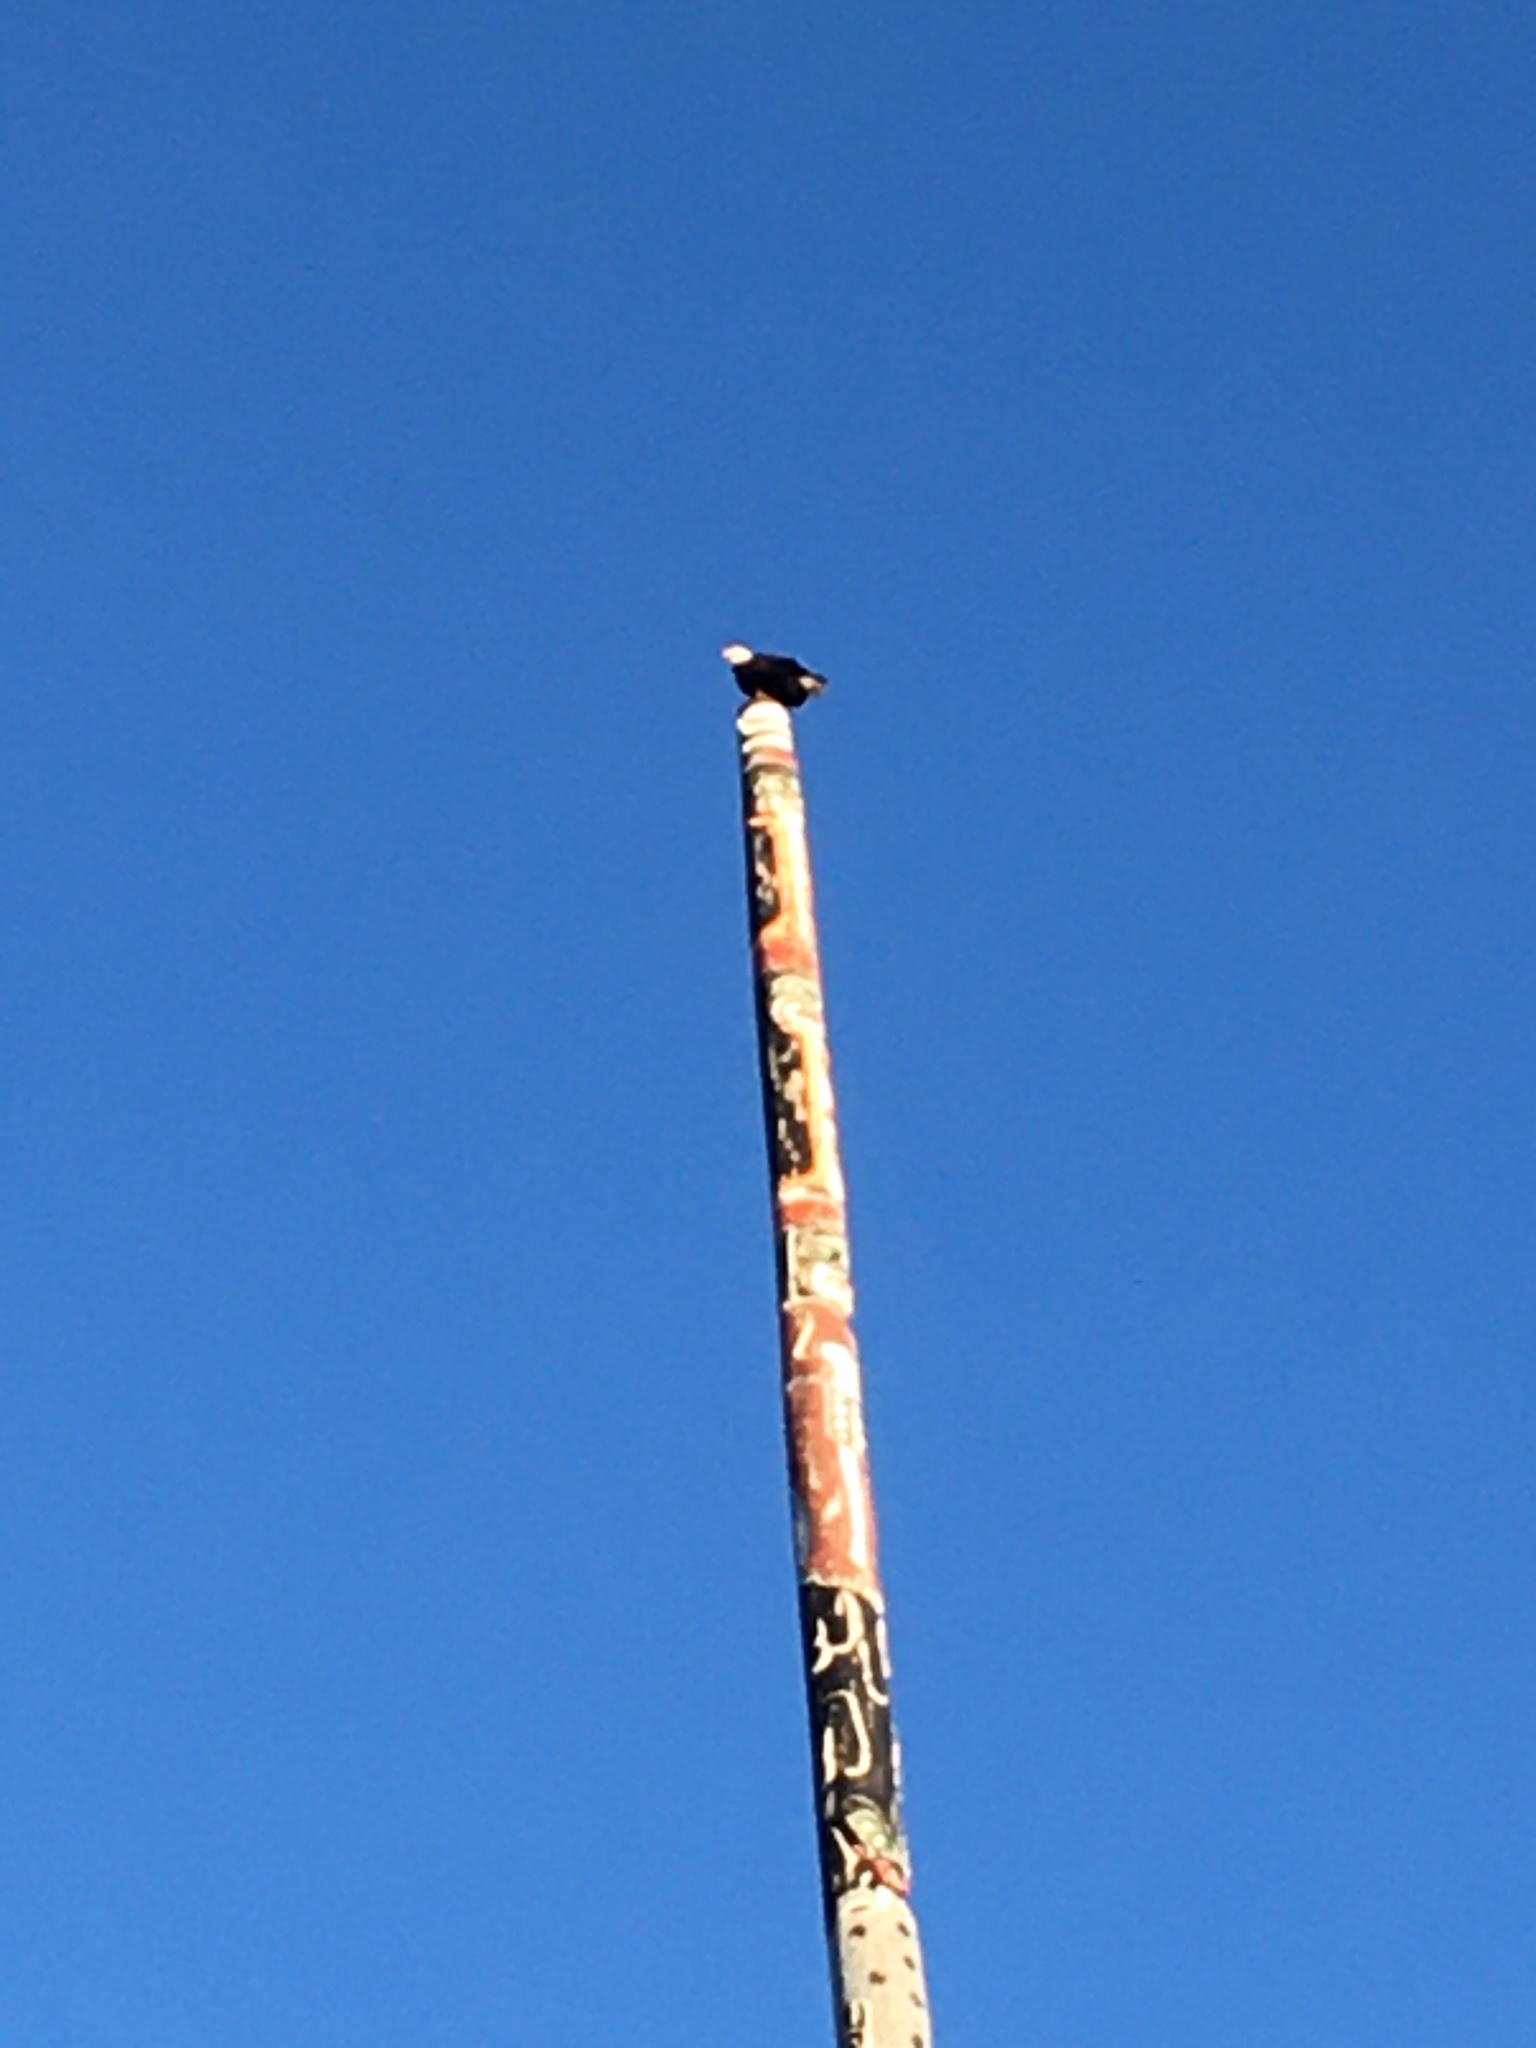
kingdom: Animalia
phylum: Chordata
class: Aves
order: Accipitriformes
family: Accipitridae
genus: Haliaeetus
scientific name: Haliaeetus leucocephalus
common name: Bald eagle
